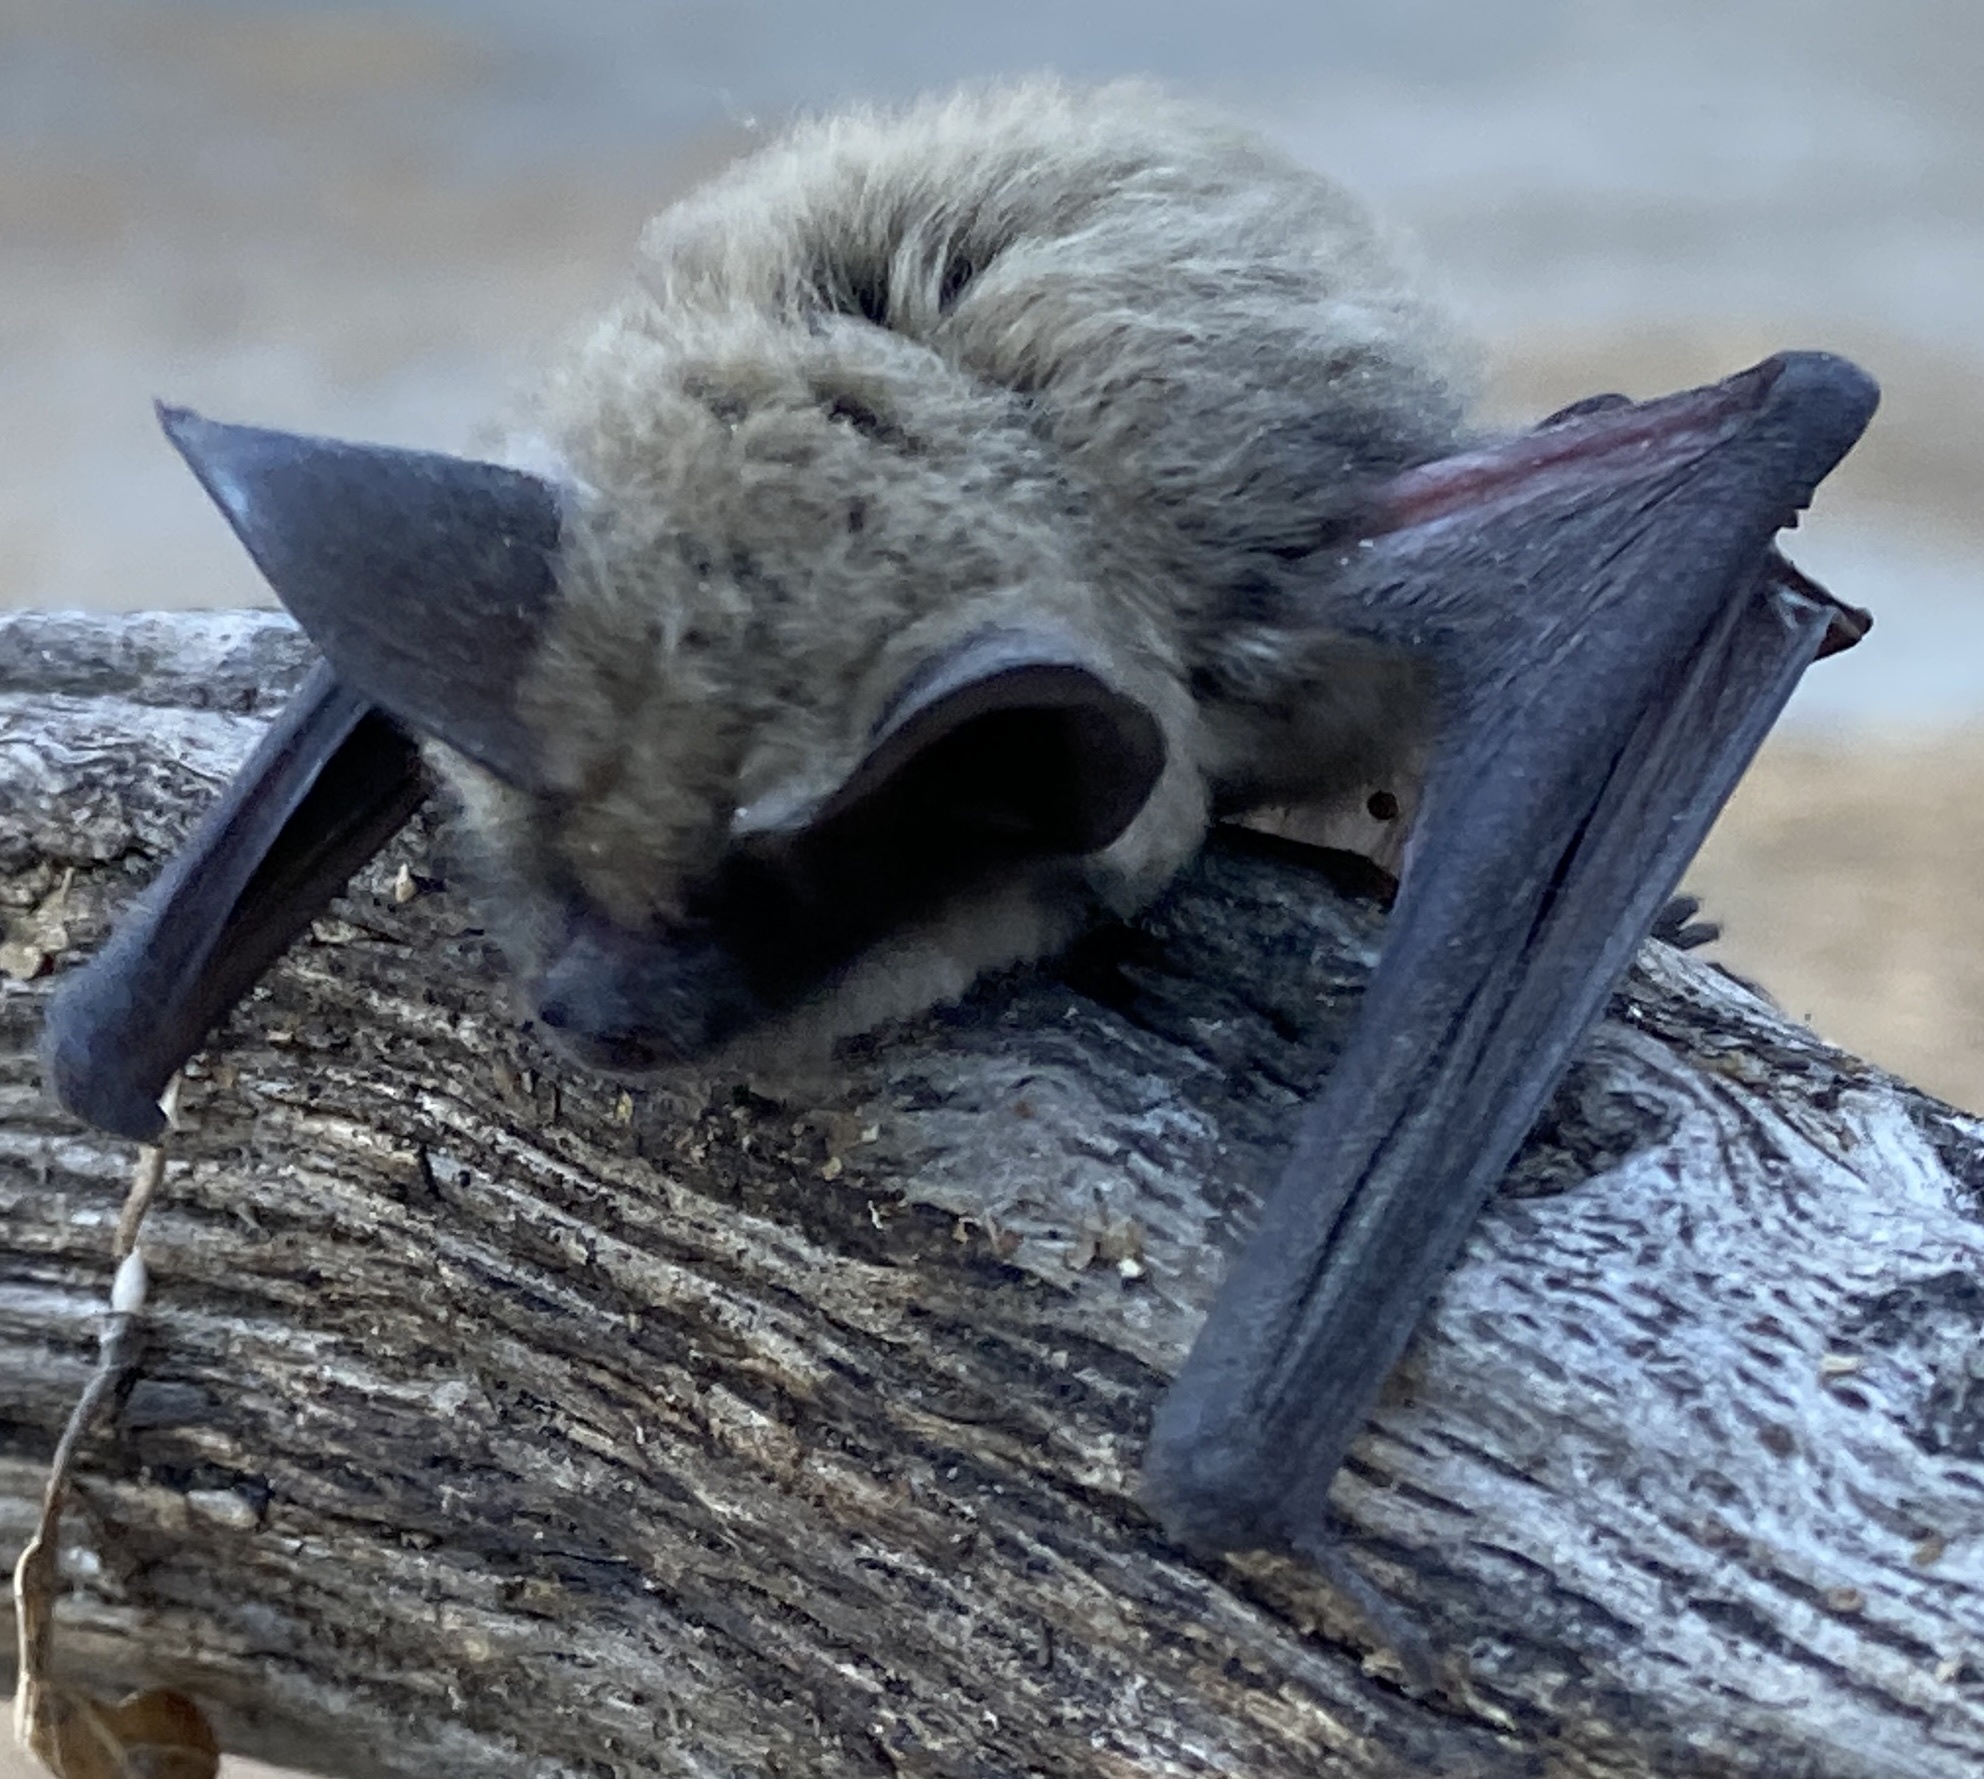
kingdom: Animalia
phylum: Chordata
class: Mammalia
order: Chiroptera
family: Vespertilionidae
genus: Myotis
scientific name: Myotis evotis
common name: Long-eared myotis
